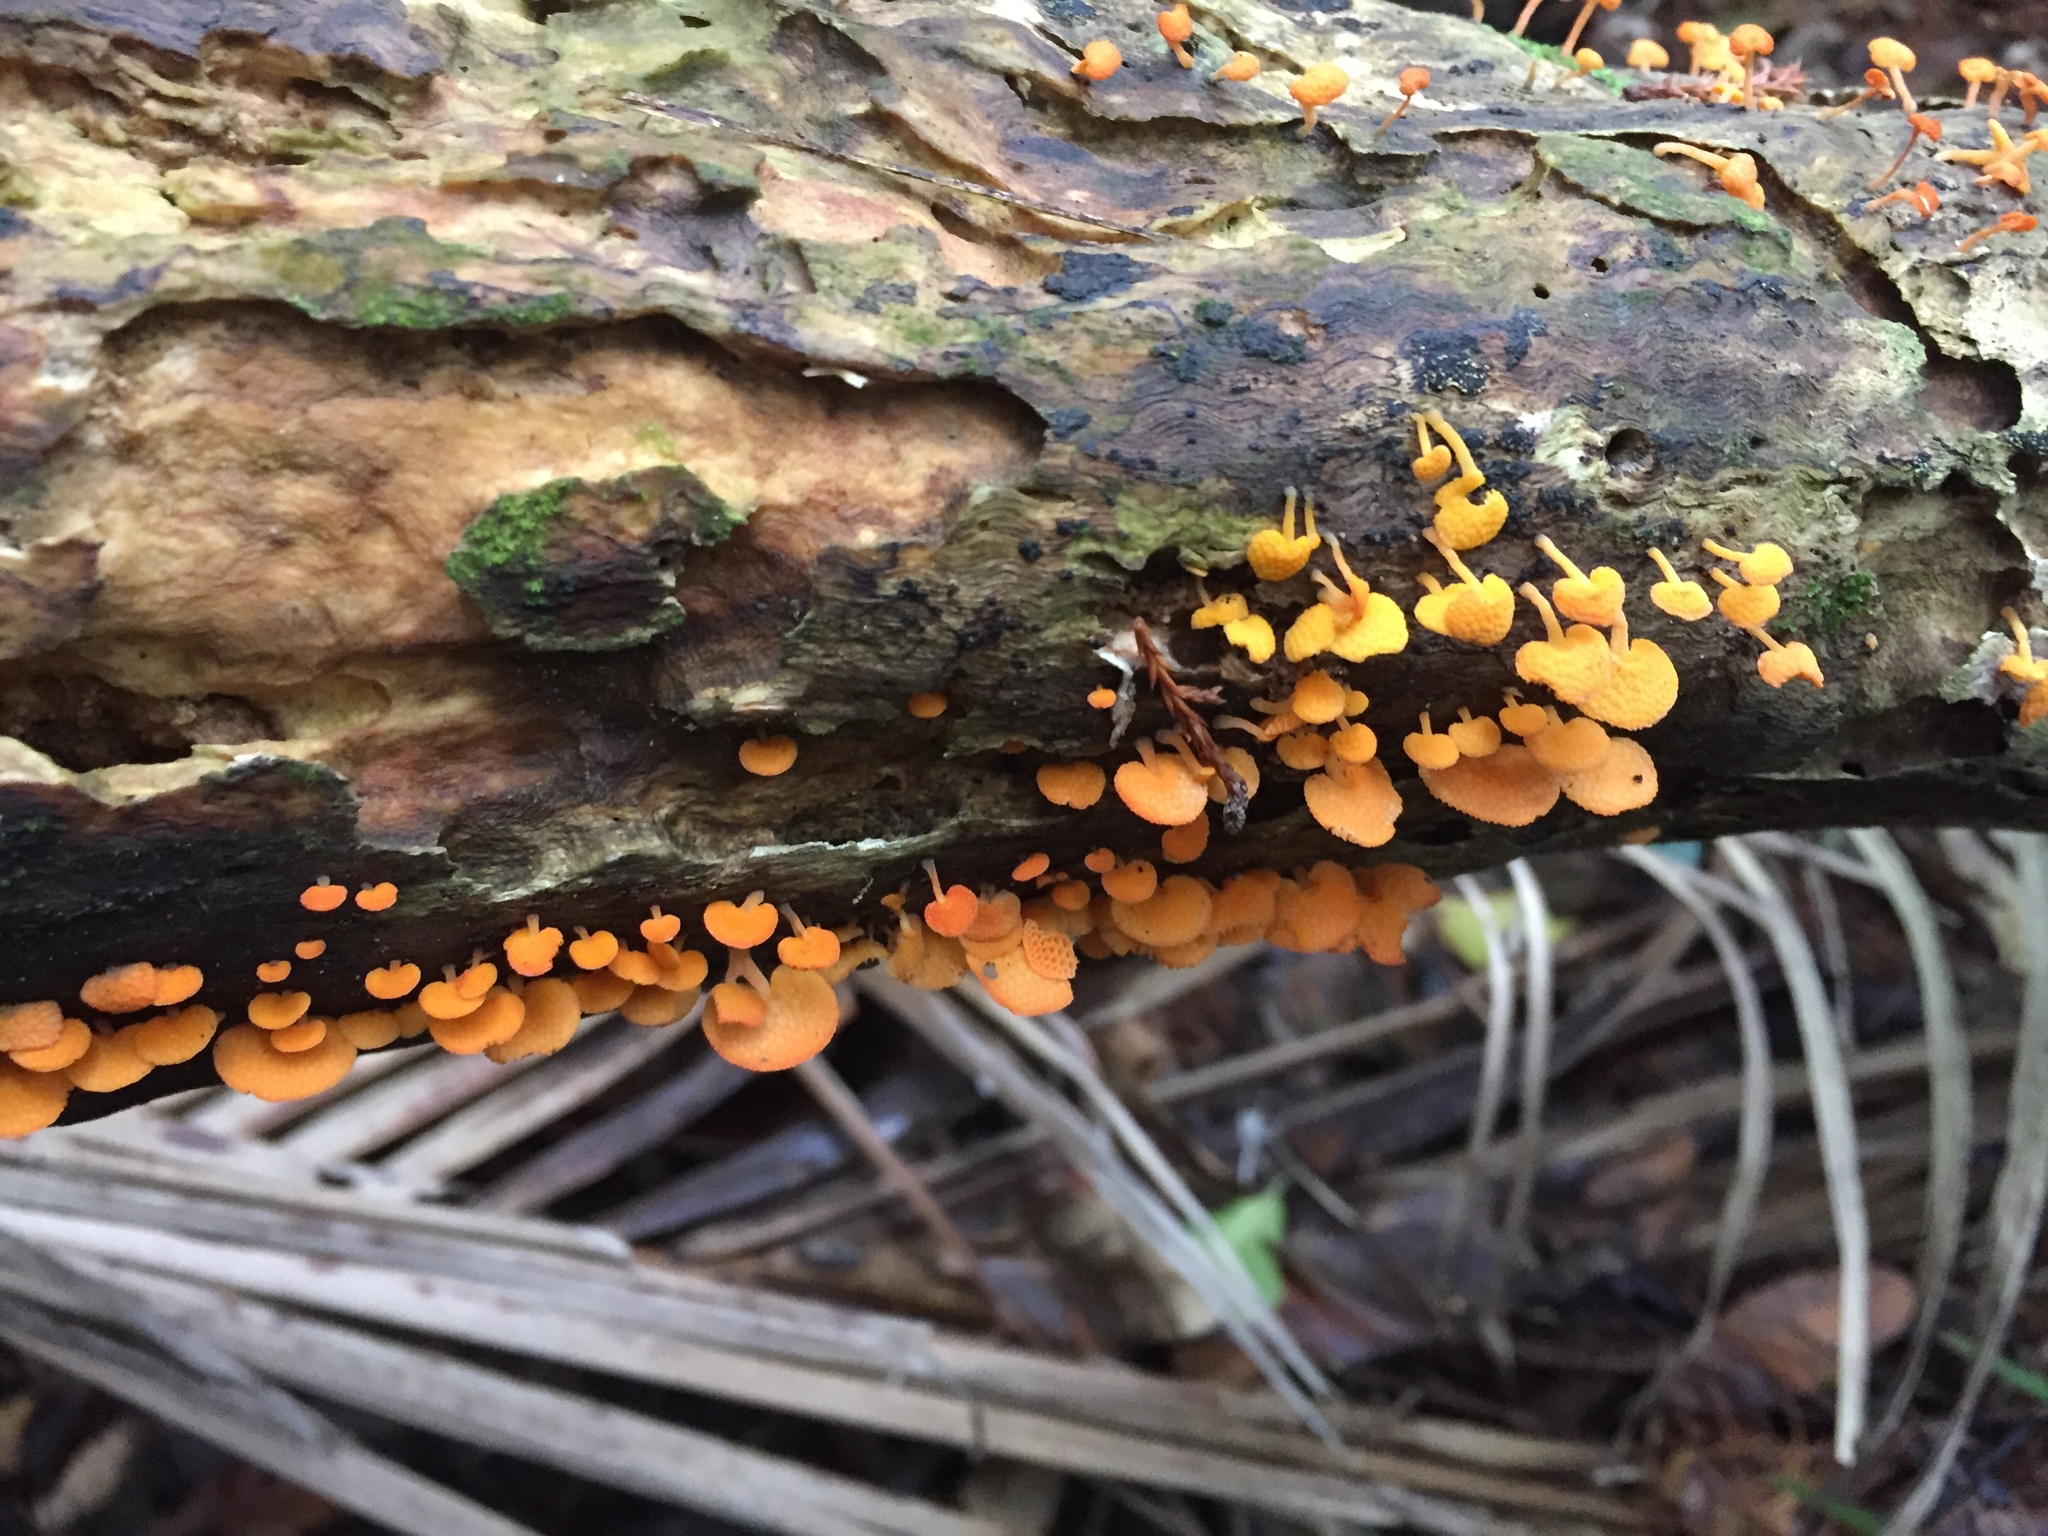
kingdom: Fungi
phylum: Basidiomycota
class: Agaricomycetes
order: Agaricales
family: Mycenaceae
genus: Favolaschia
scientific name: Favolaschia claudopus
